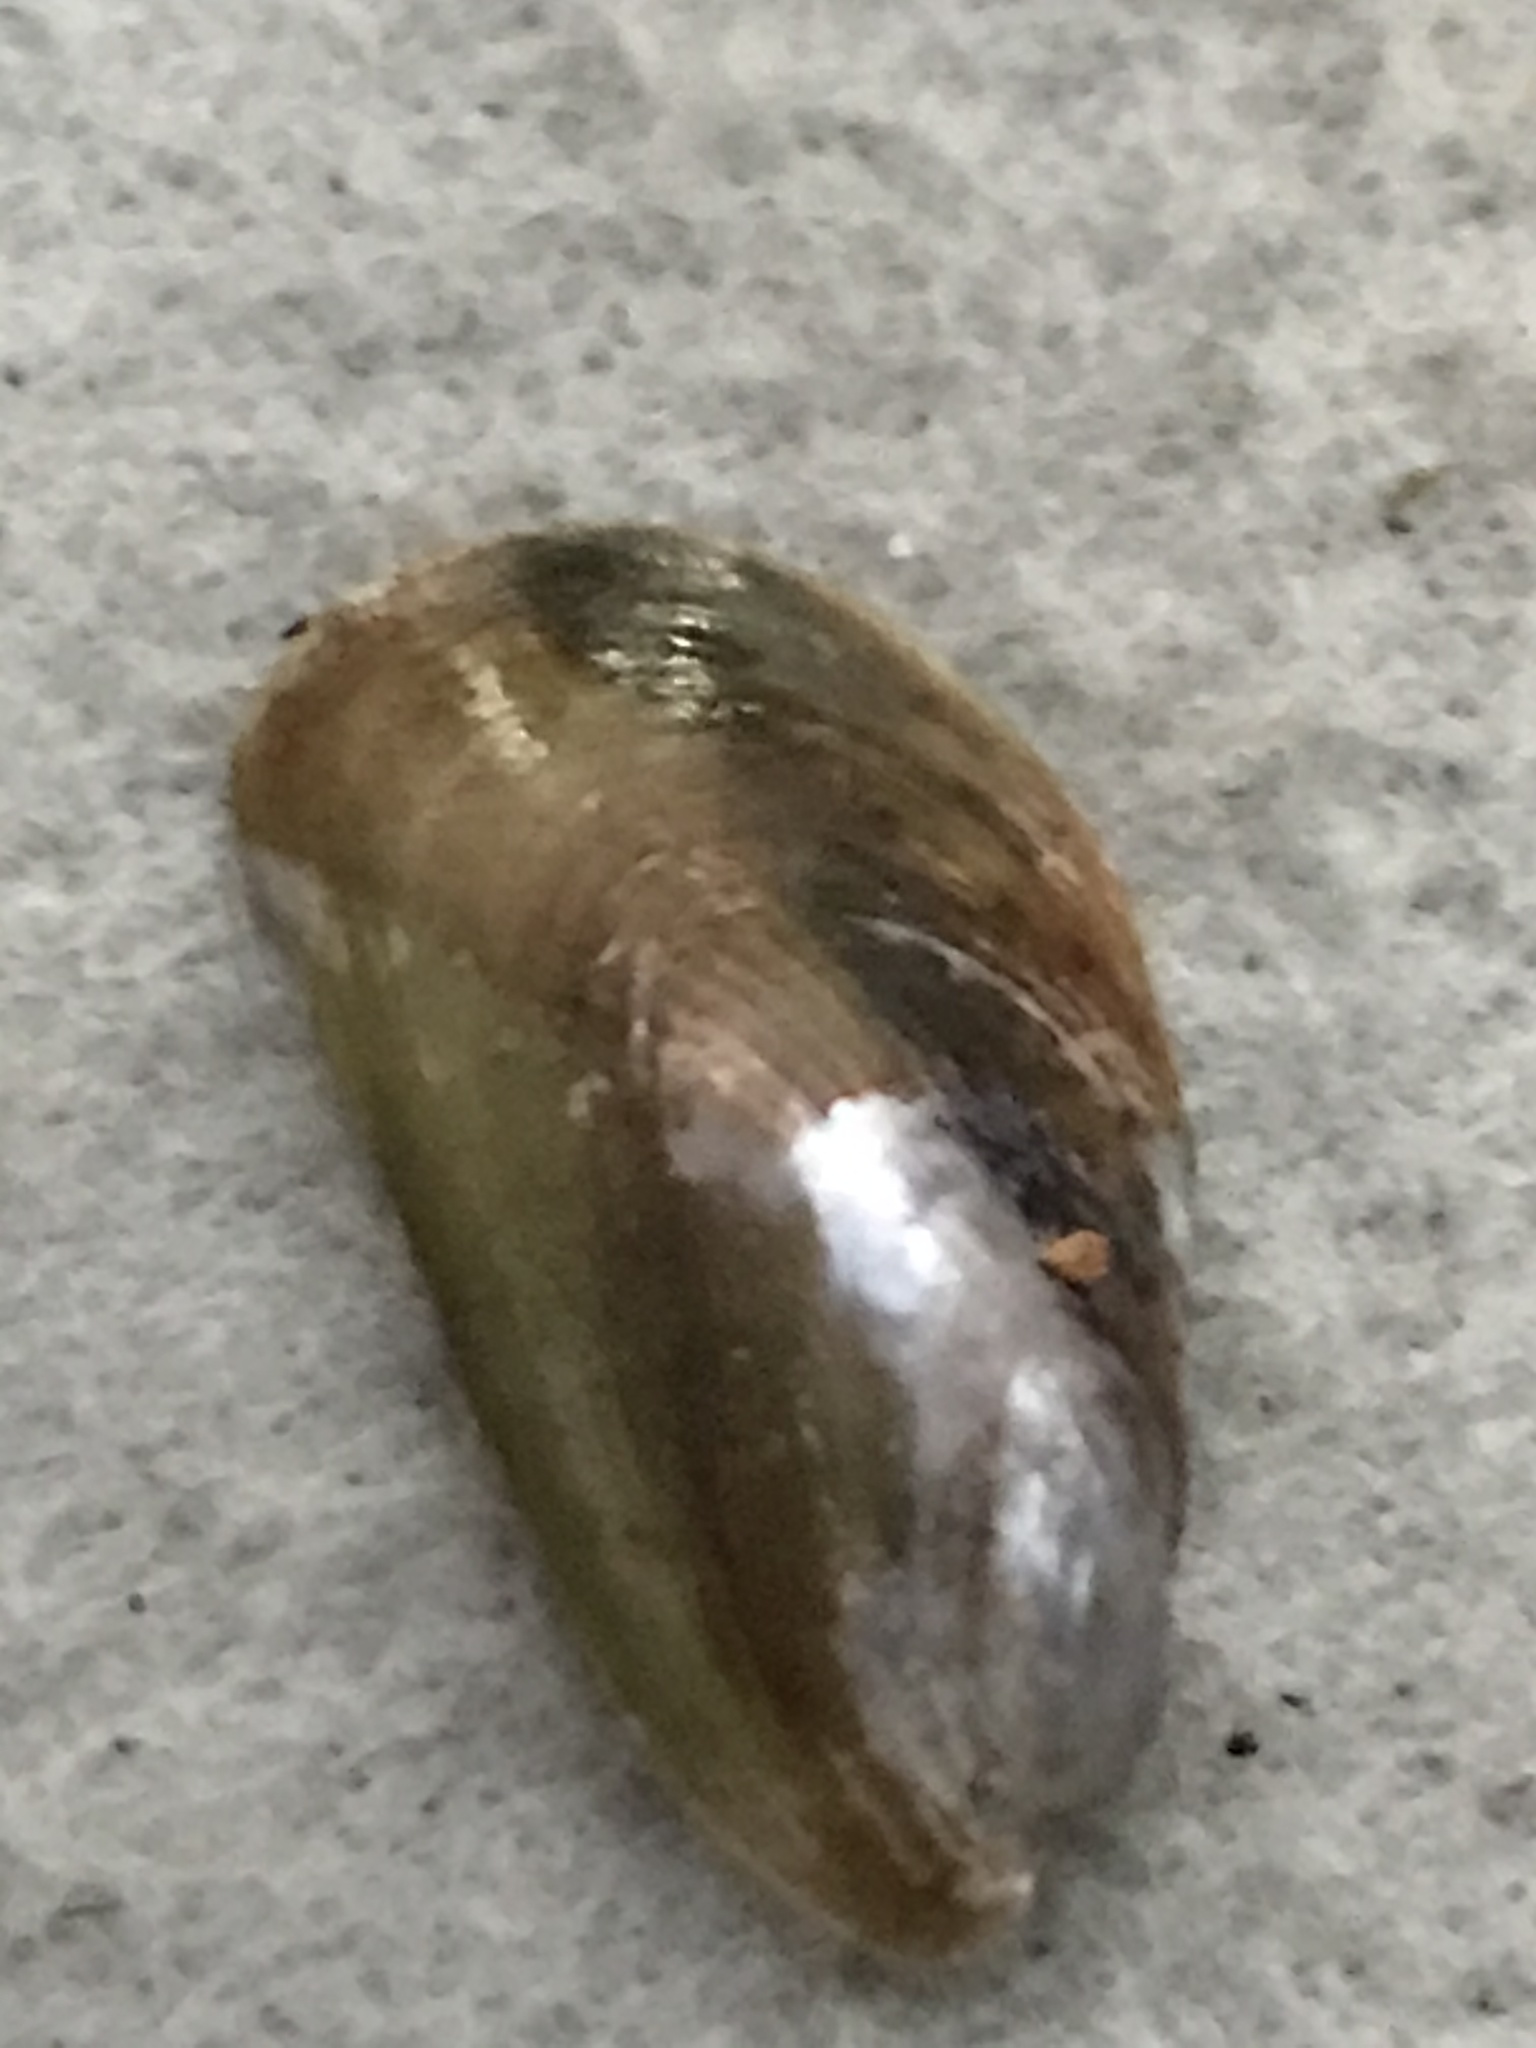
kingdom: Animalia
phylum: Mollusca
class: Bivalvia
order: Mytilida
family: Mytilidae
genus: Arcuatula
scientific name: Arcuatula senhousia
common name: Asian mussel
